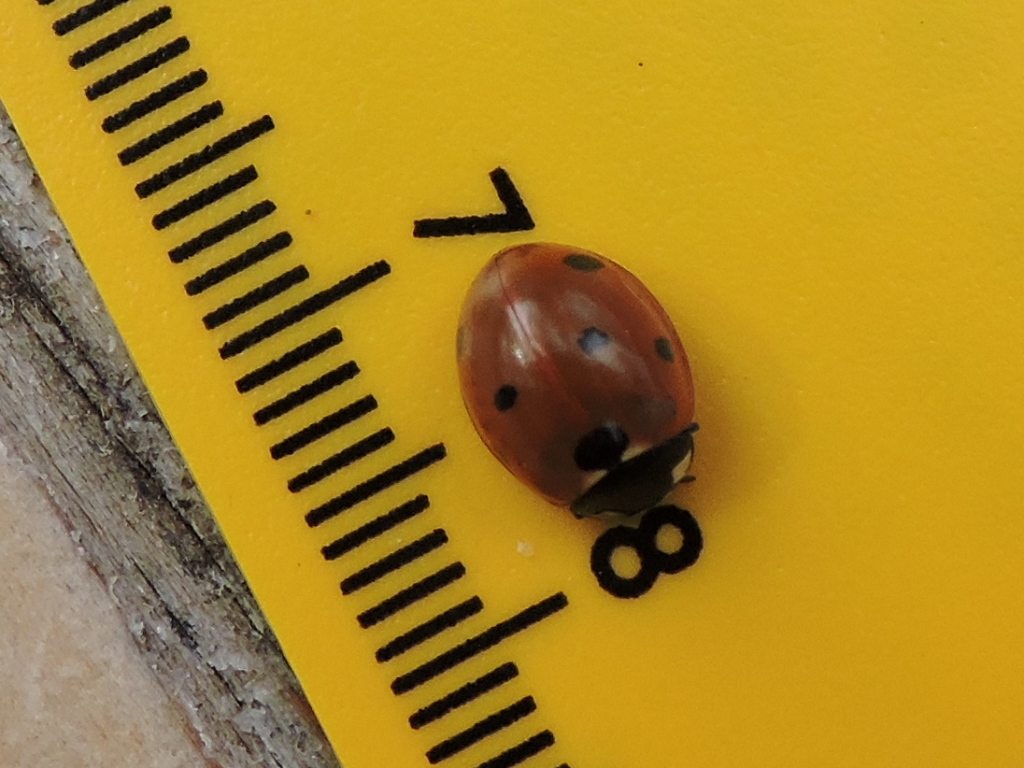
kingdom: Animalia
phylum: Arthropoda
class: Insecta
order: Coleoptera
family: Coccinellidae
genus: Coccinella
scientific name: Coccinella septempunctata
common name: Sevenspotted lady beetle
